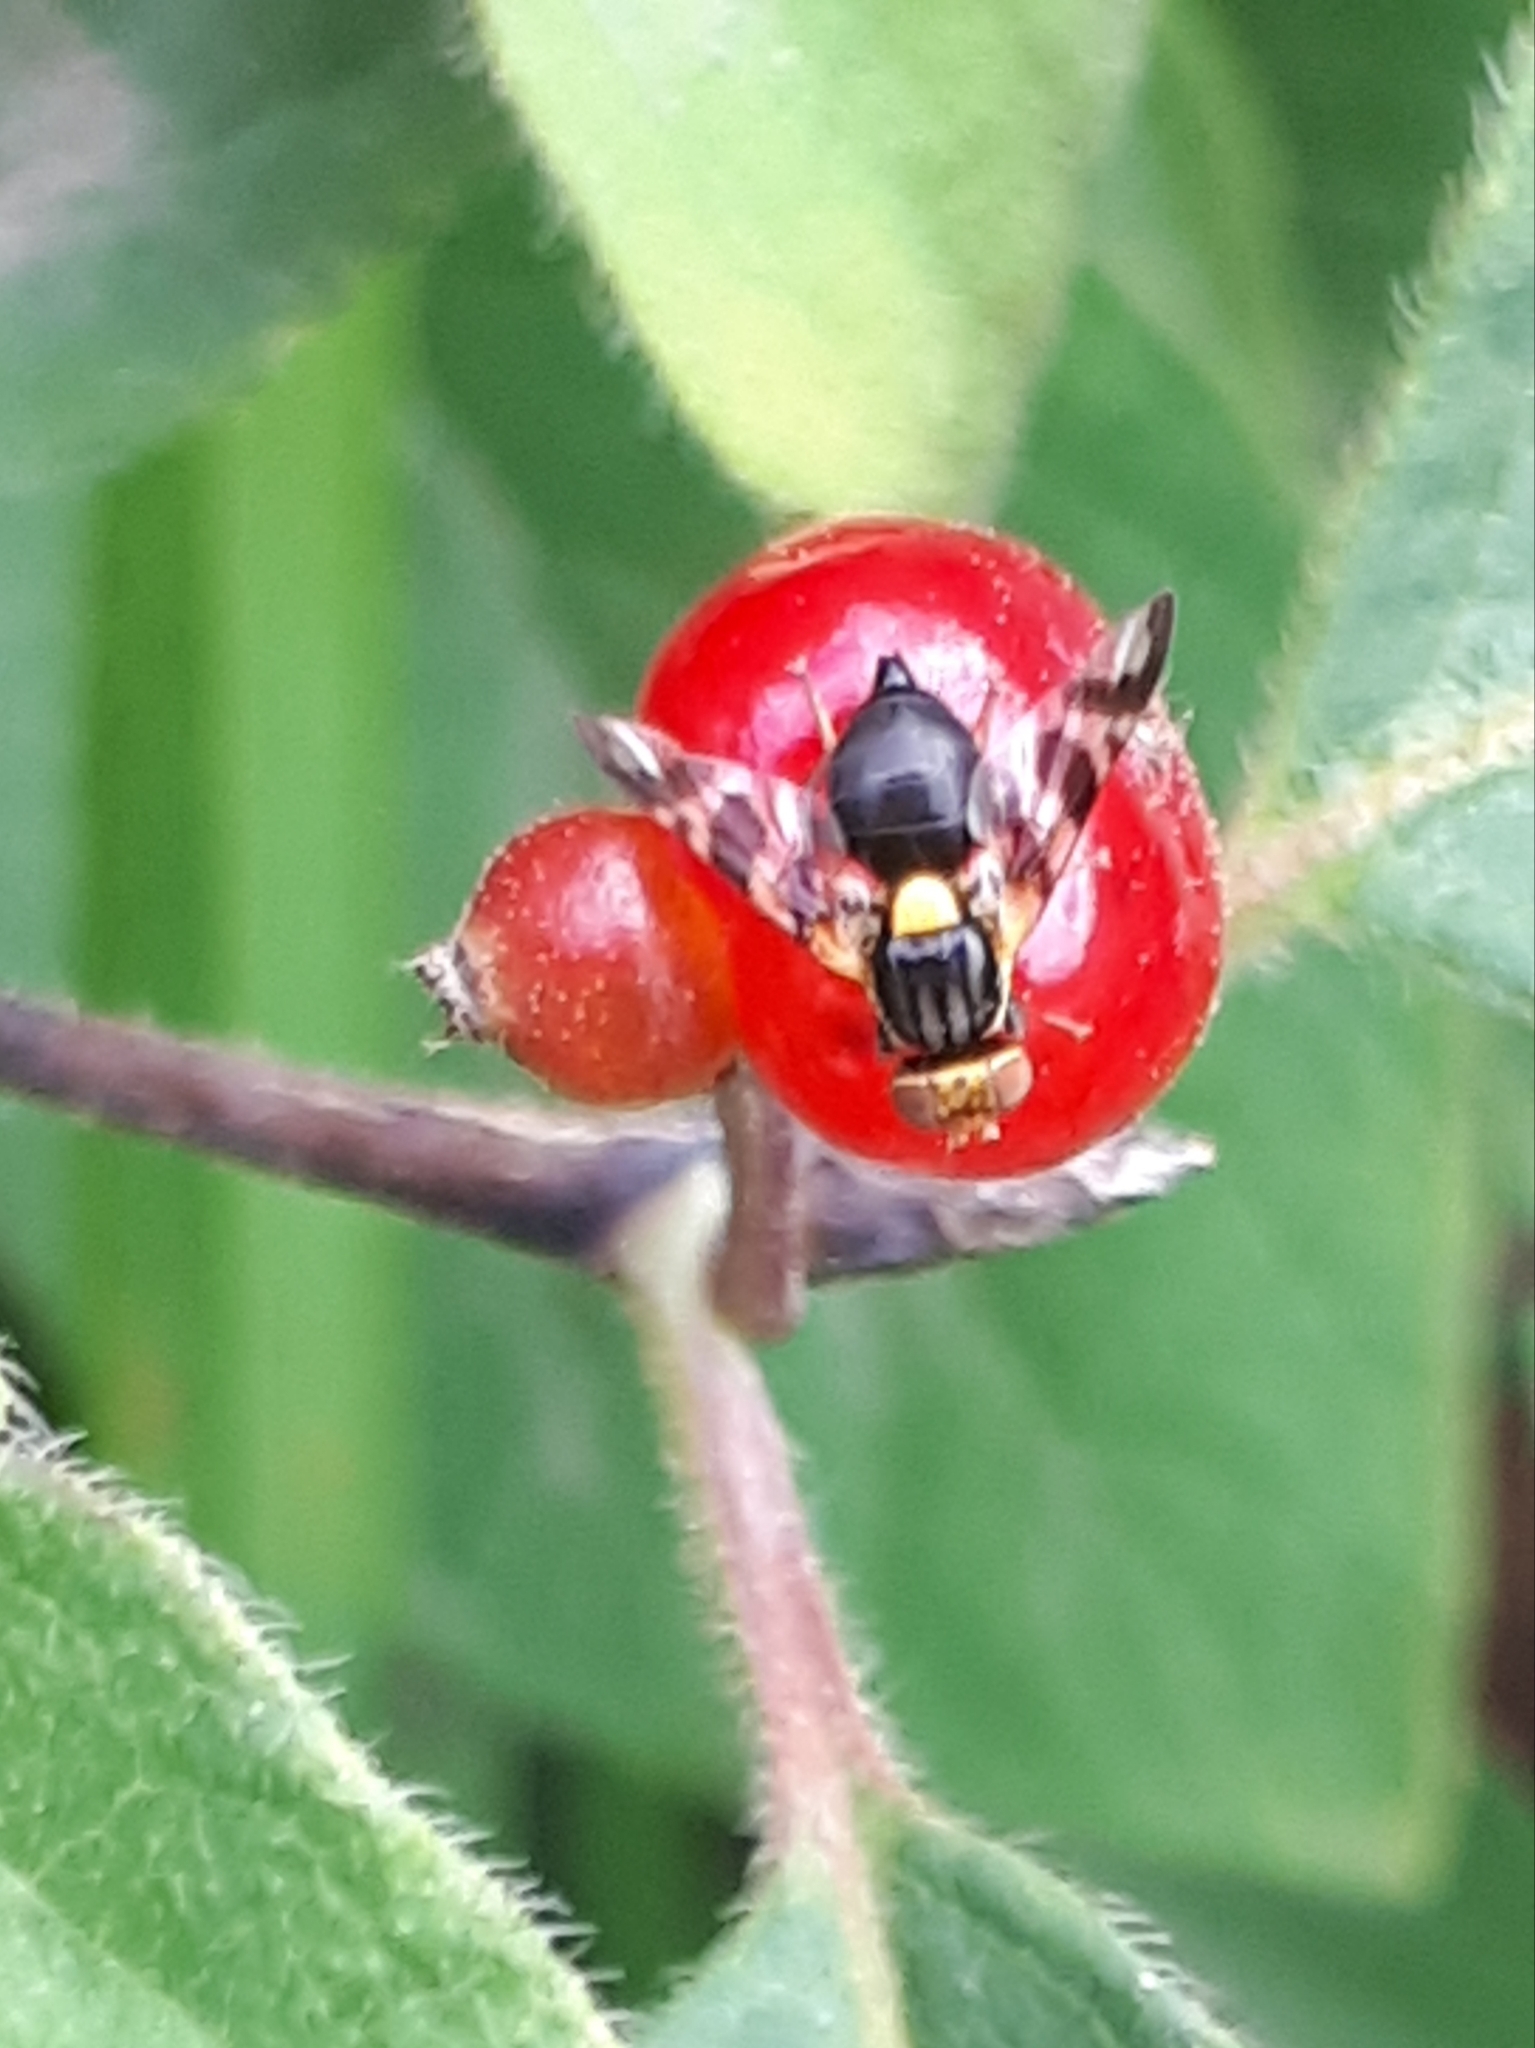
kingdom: Animalia
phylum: Arthropoda
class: Insecta
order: Diptera
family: Tephritidae
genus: Rhagoletis
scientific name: Rhagoletis cerasi
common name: European cherry fruit fly
